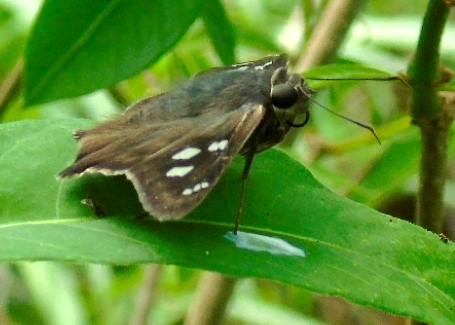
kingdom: Animalia
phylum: Arthropoda
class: Insecta
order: Lepidoptera
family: Hesperiidae
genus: Polygonus
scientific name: Polygonus leo
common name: Hammoch skipper
